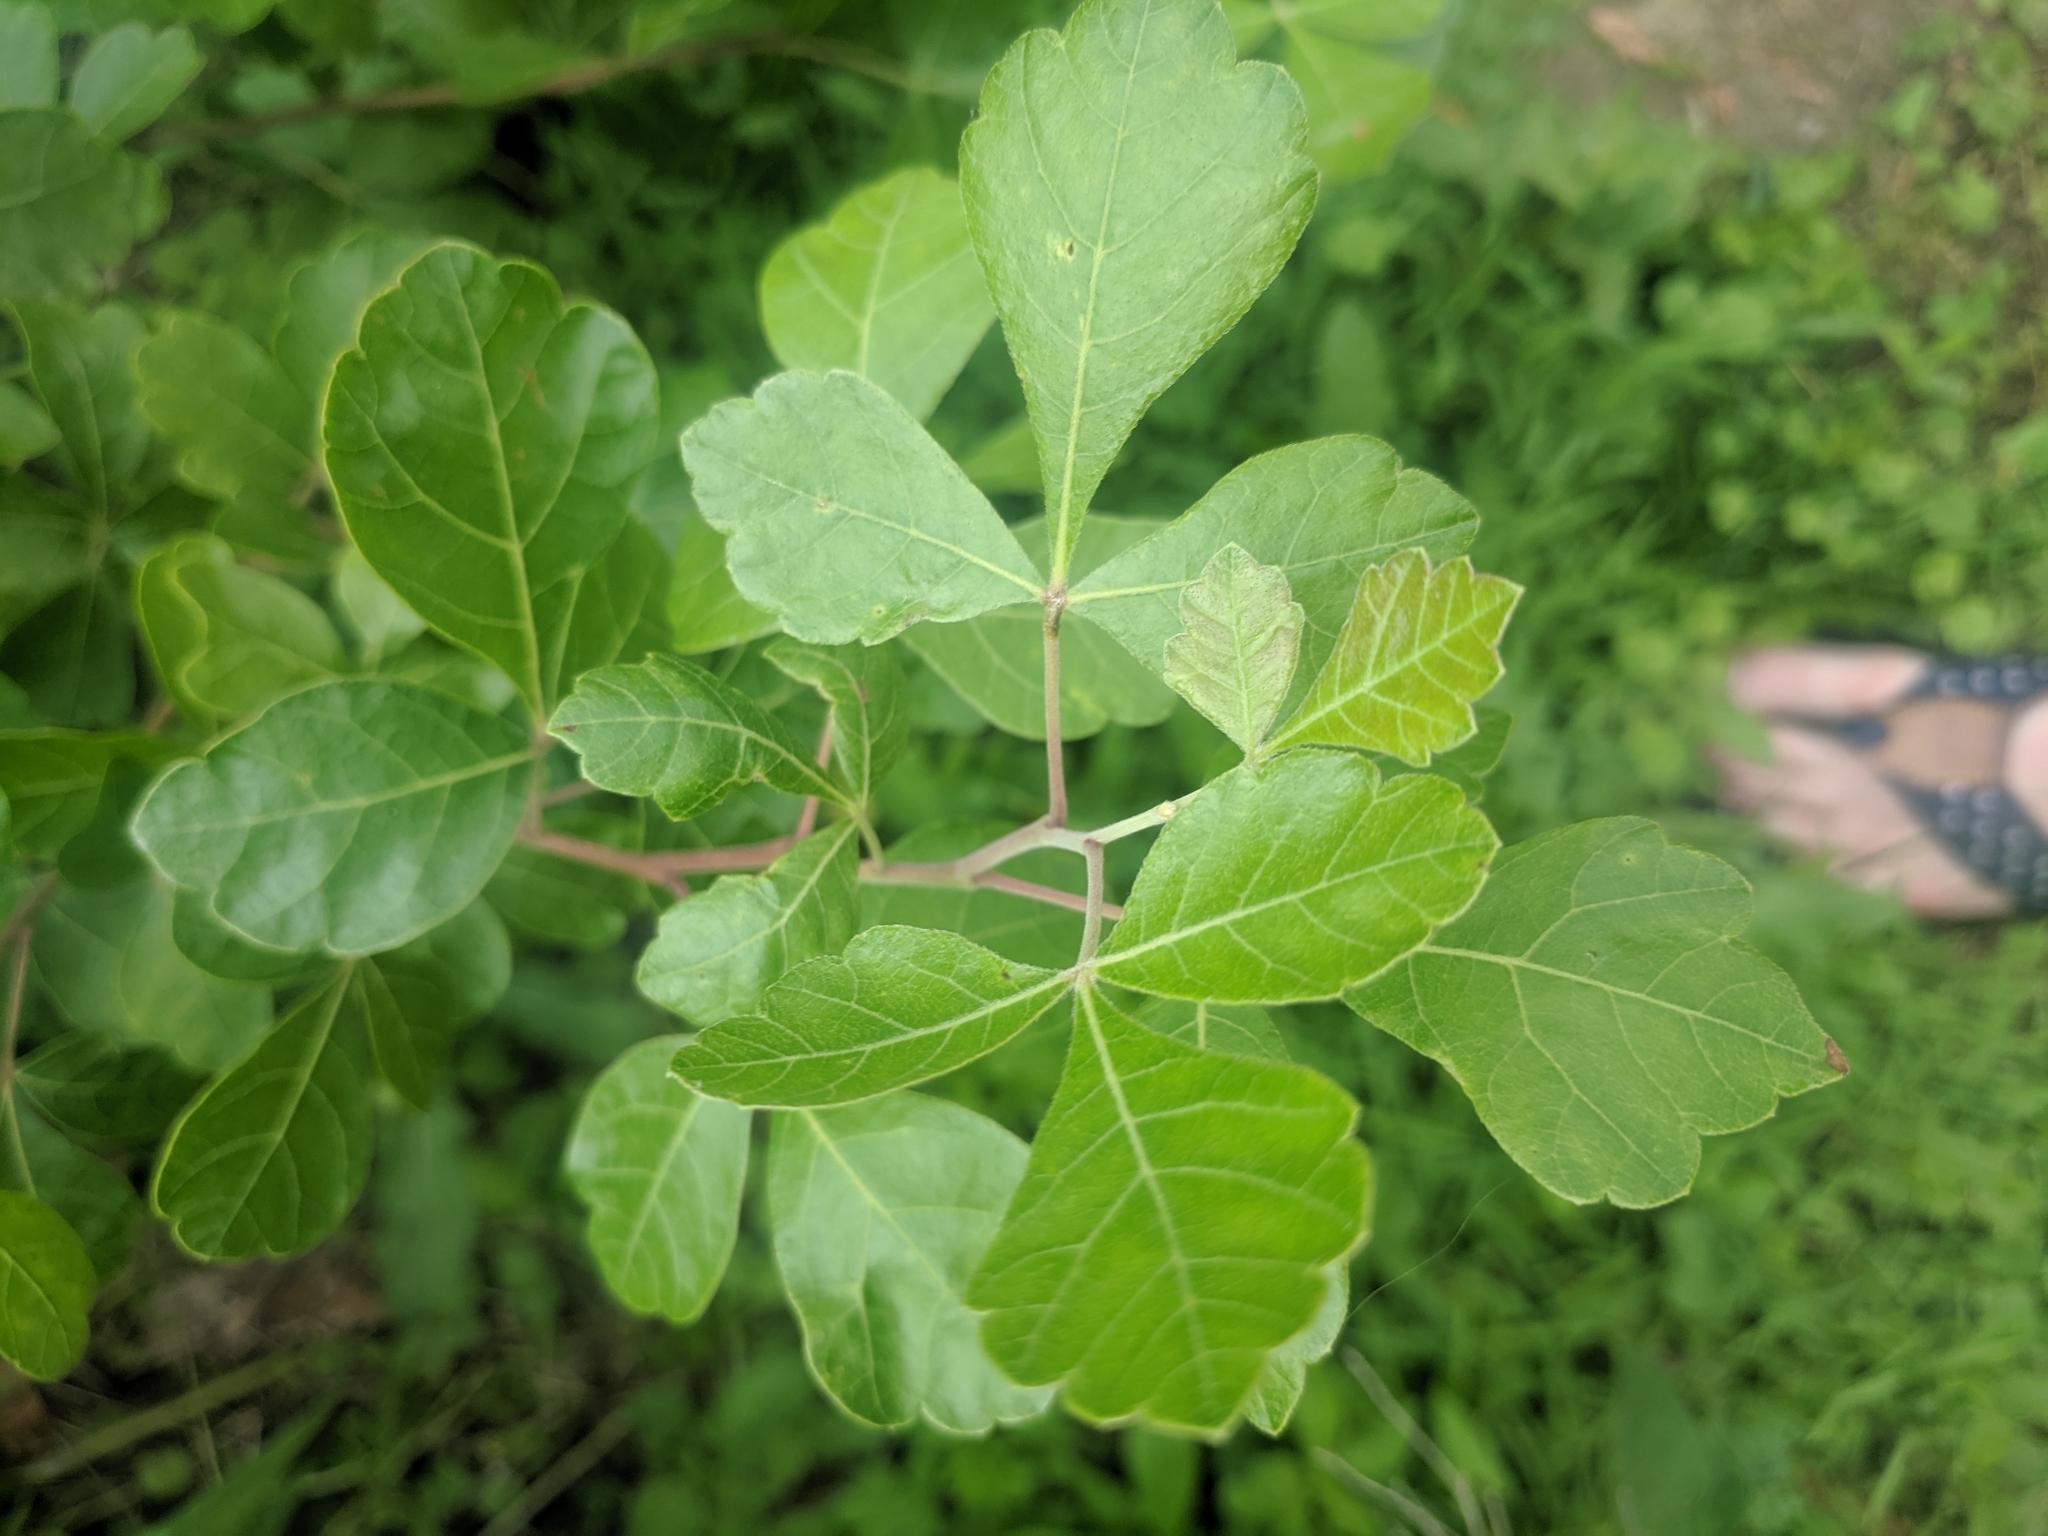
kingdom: Plantae
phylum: Tracheophyta
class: Magnoliopsida
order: Sapindales
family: Anacardiaceae
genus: Rhus
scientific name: Rhus aromatica
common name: Aromatic sumac
